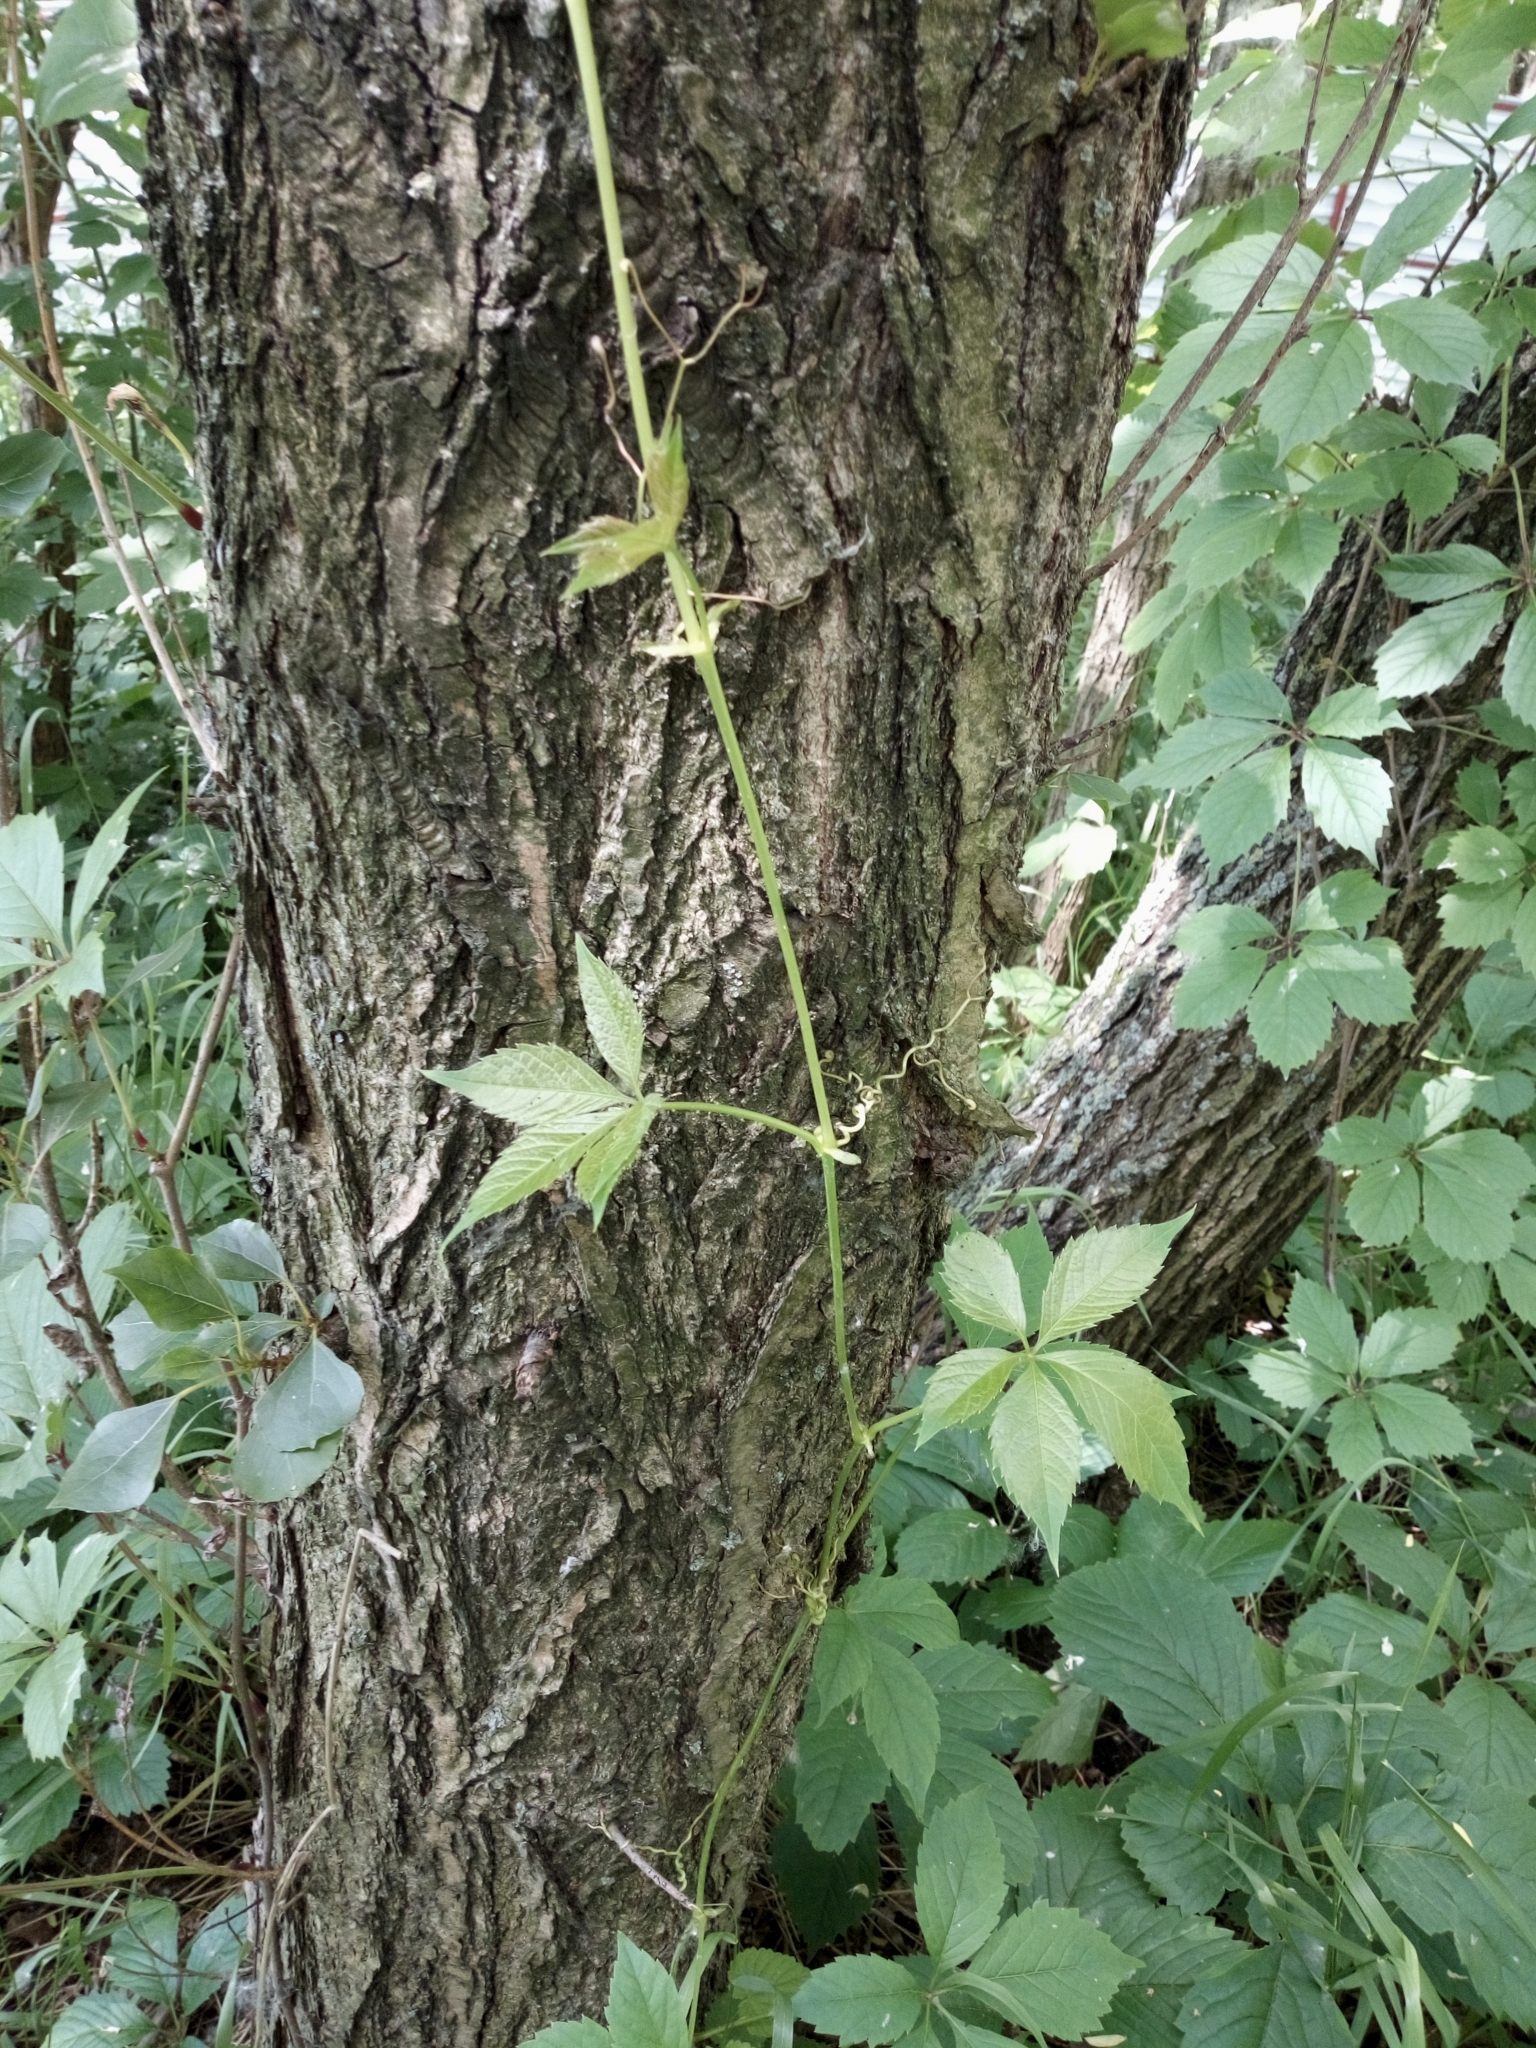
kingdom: Plantae
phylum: Tracheophyta
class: Magnoliopsida
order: Vitales
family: Vitaceae
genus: Parthenocissus
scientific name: Parthenocissus quinquefolia
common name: Virginia-creeper
